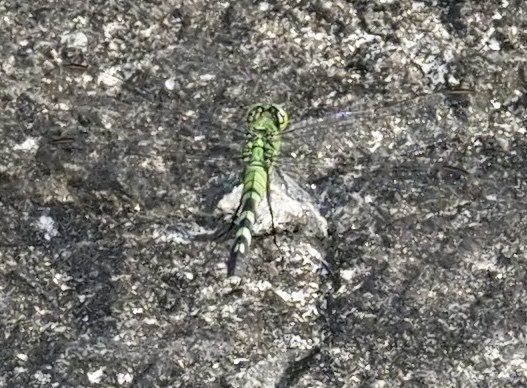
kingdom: Animalia
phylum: Arthropoda
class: Insecta
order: Odonata
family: Libellulidae
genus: Erythemis
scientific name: Erythemis simplicicollis
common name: Eastern pondhawk
